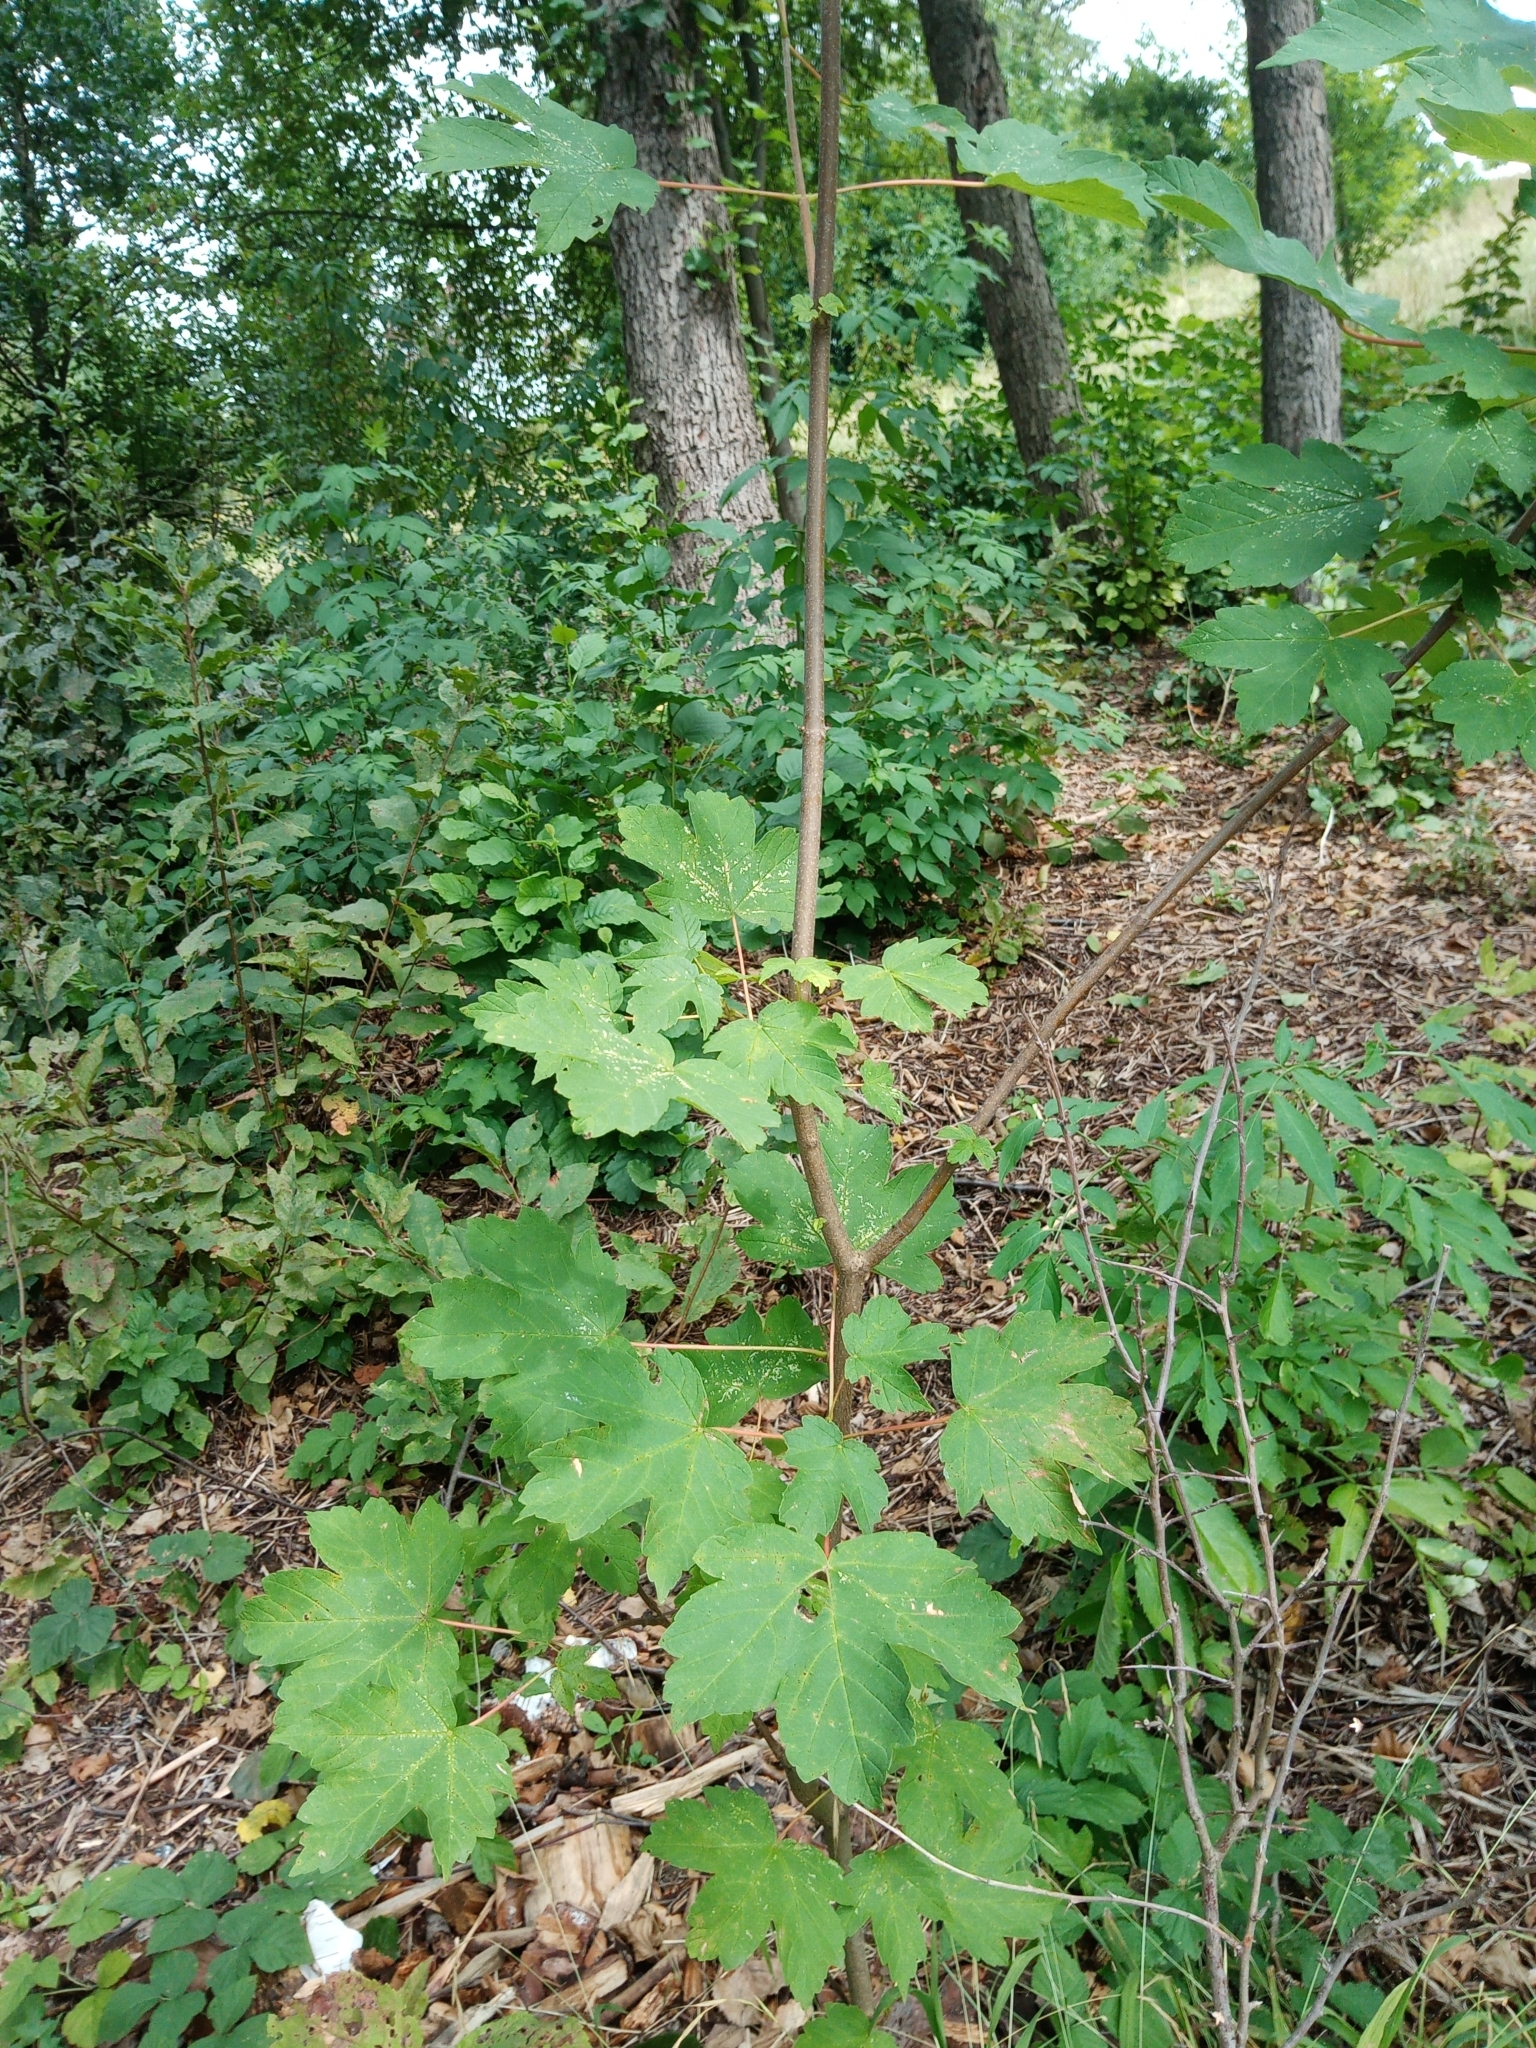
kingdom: Plantae
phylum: Tracheophyta
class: Magnoliopsida
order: Sapindales
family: Sapindaceae
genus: Acer
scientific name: Acer pseudoplatanus
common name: Sycamore
